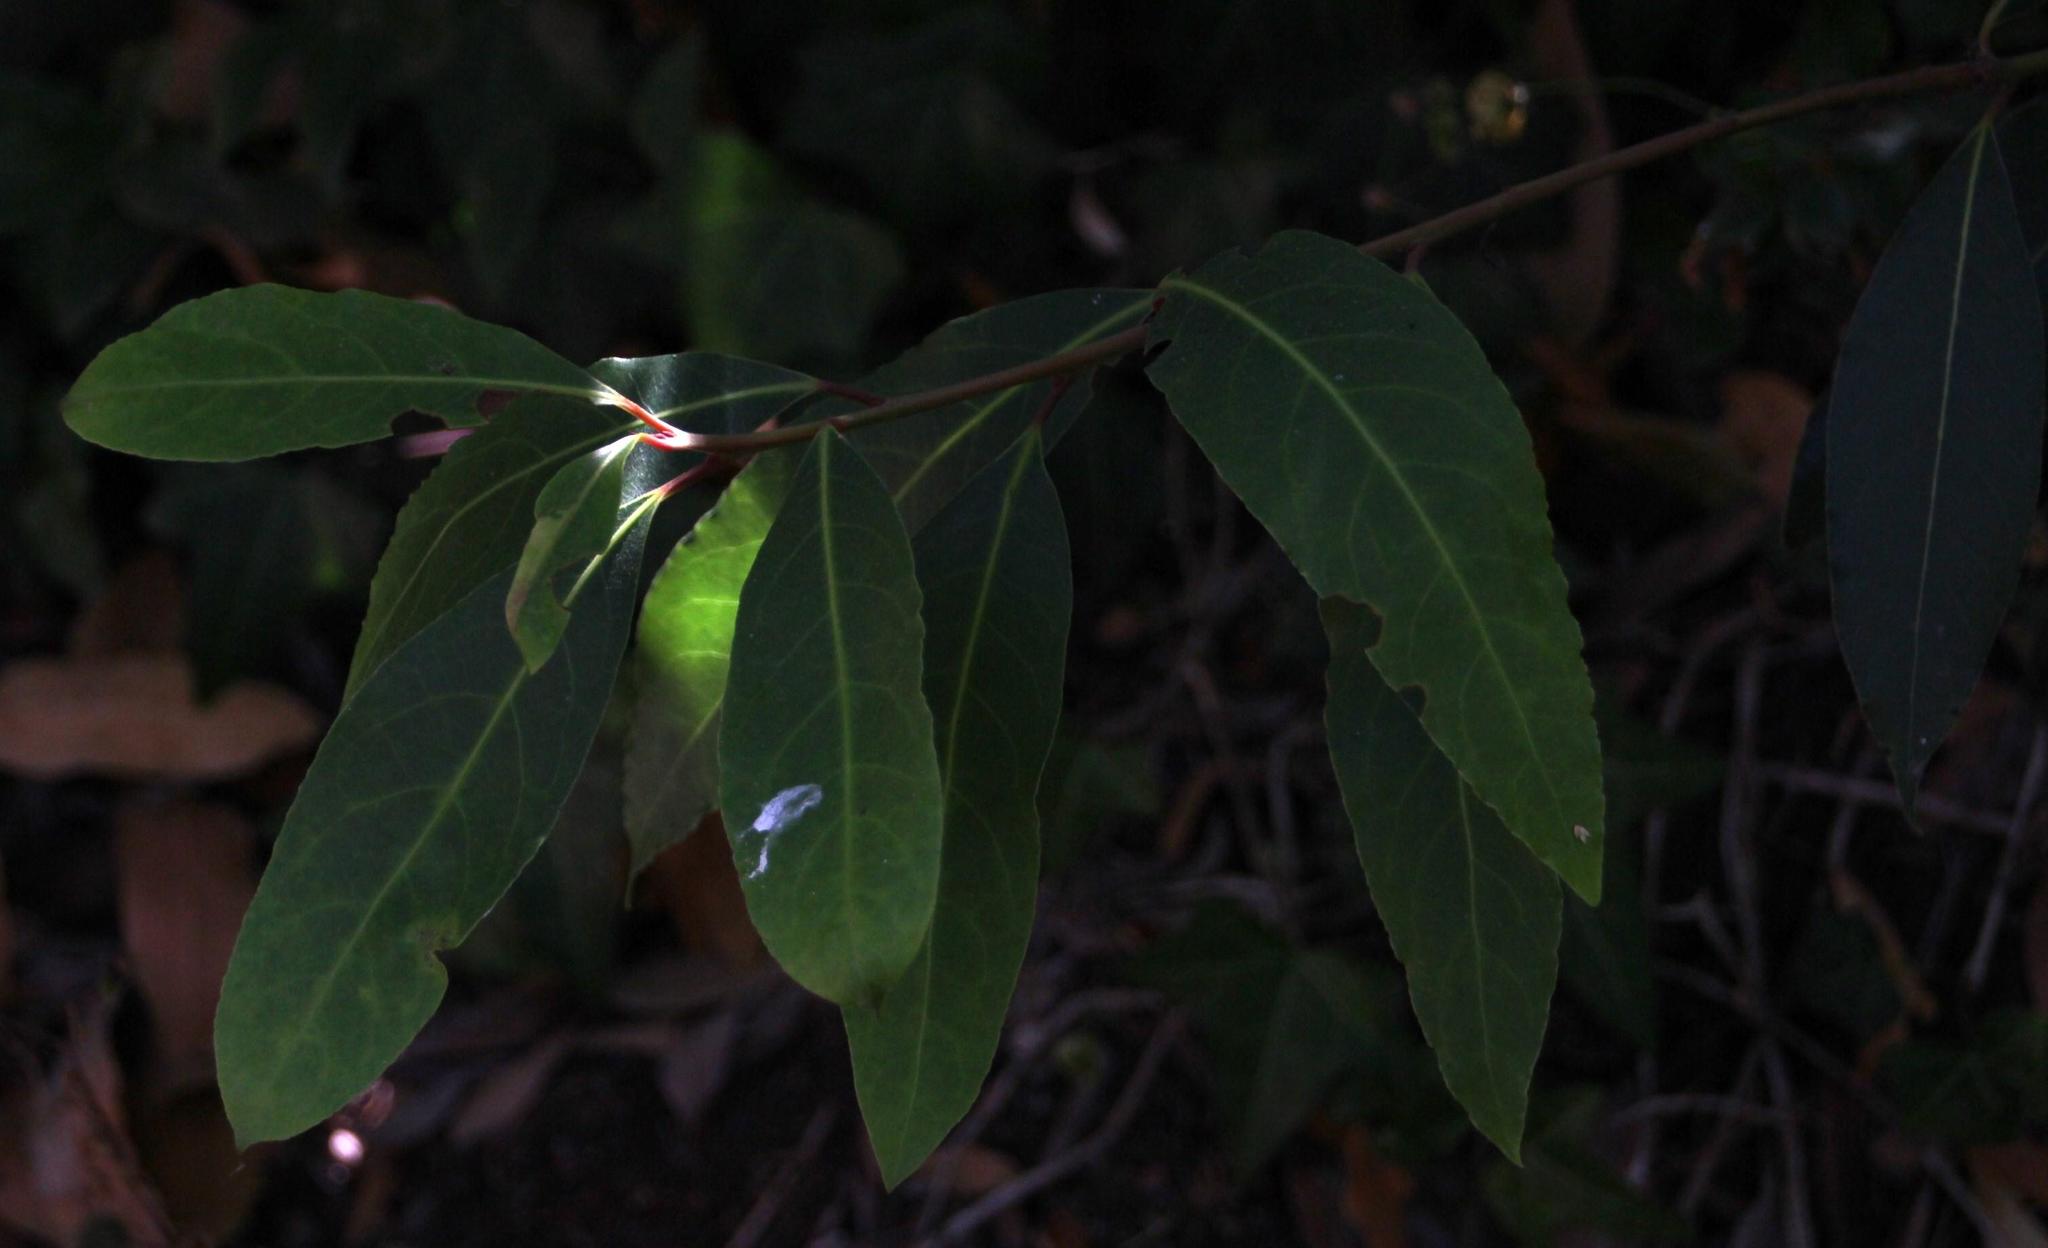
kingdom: Plantae
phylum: Tracheophyta
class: Magnoliopsida
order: Laurales
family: Lauraceae
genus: Laurus
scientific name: Laurus nobilis
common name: Bay
